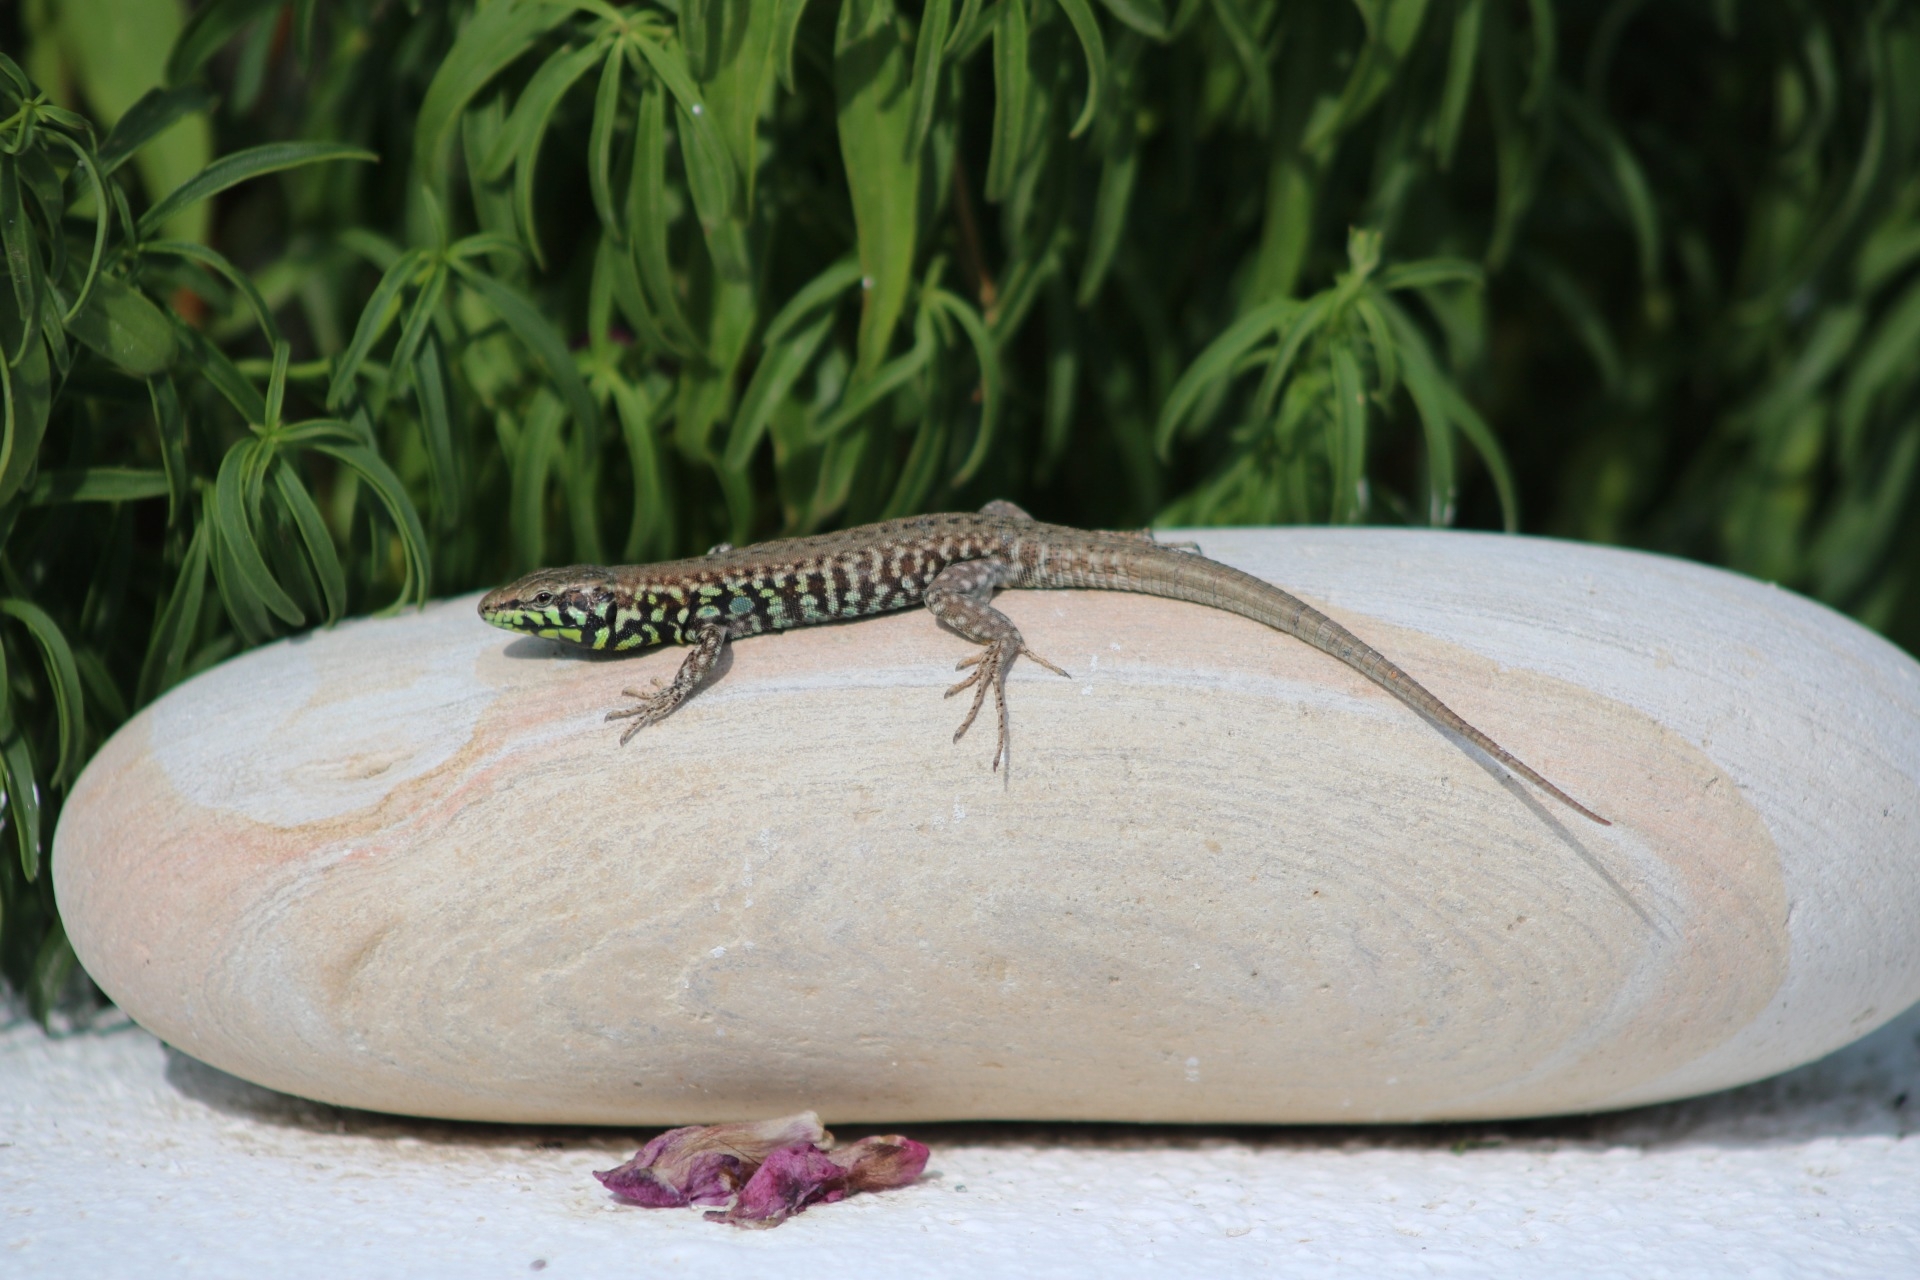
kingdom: Animalia
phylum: Chordata
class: Squamata
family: Lacertidae
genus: Podarcis
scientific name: Podarcis milensis
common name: Milos wall lizard
